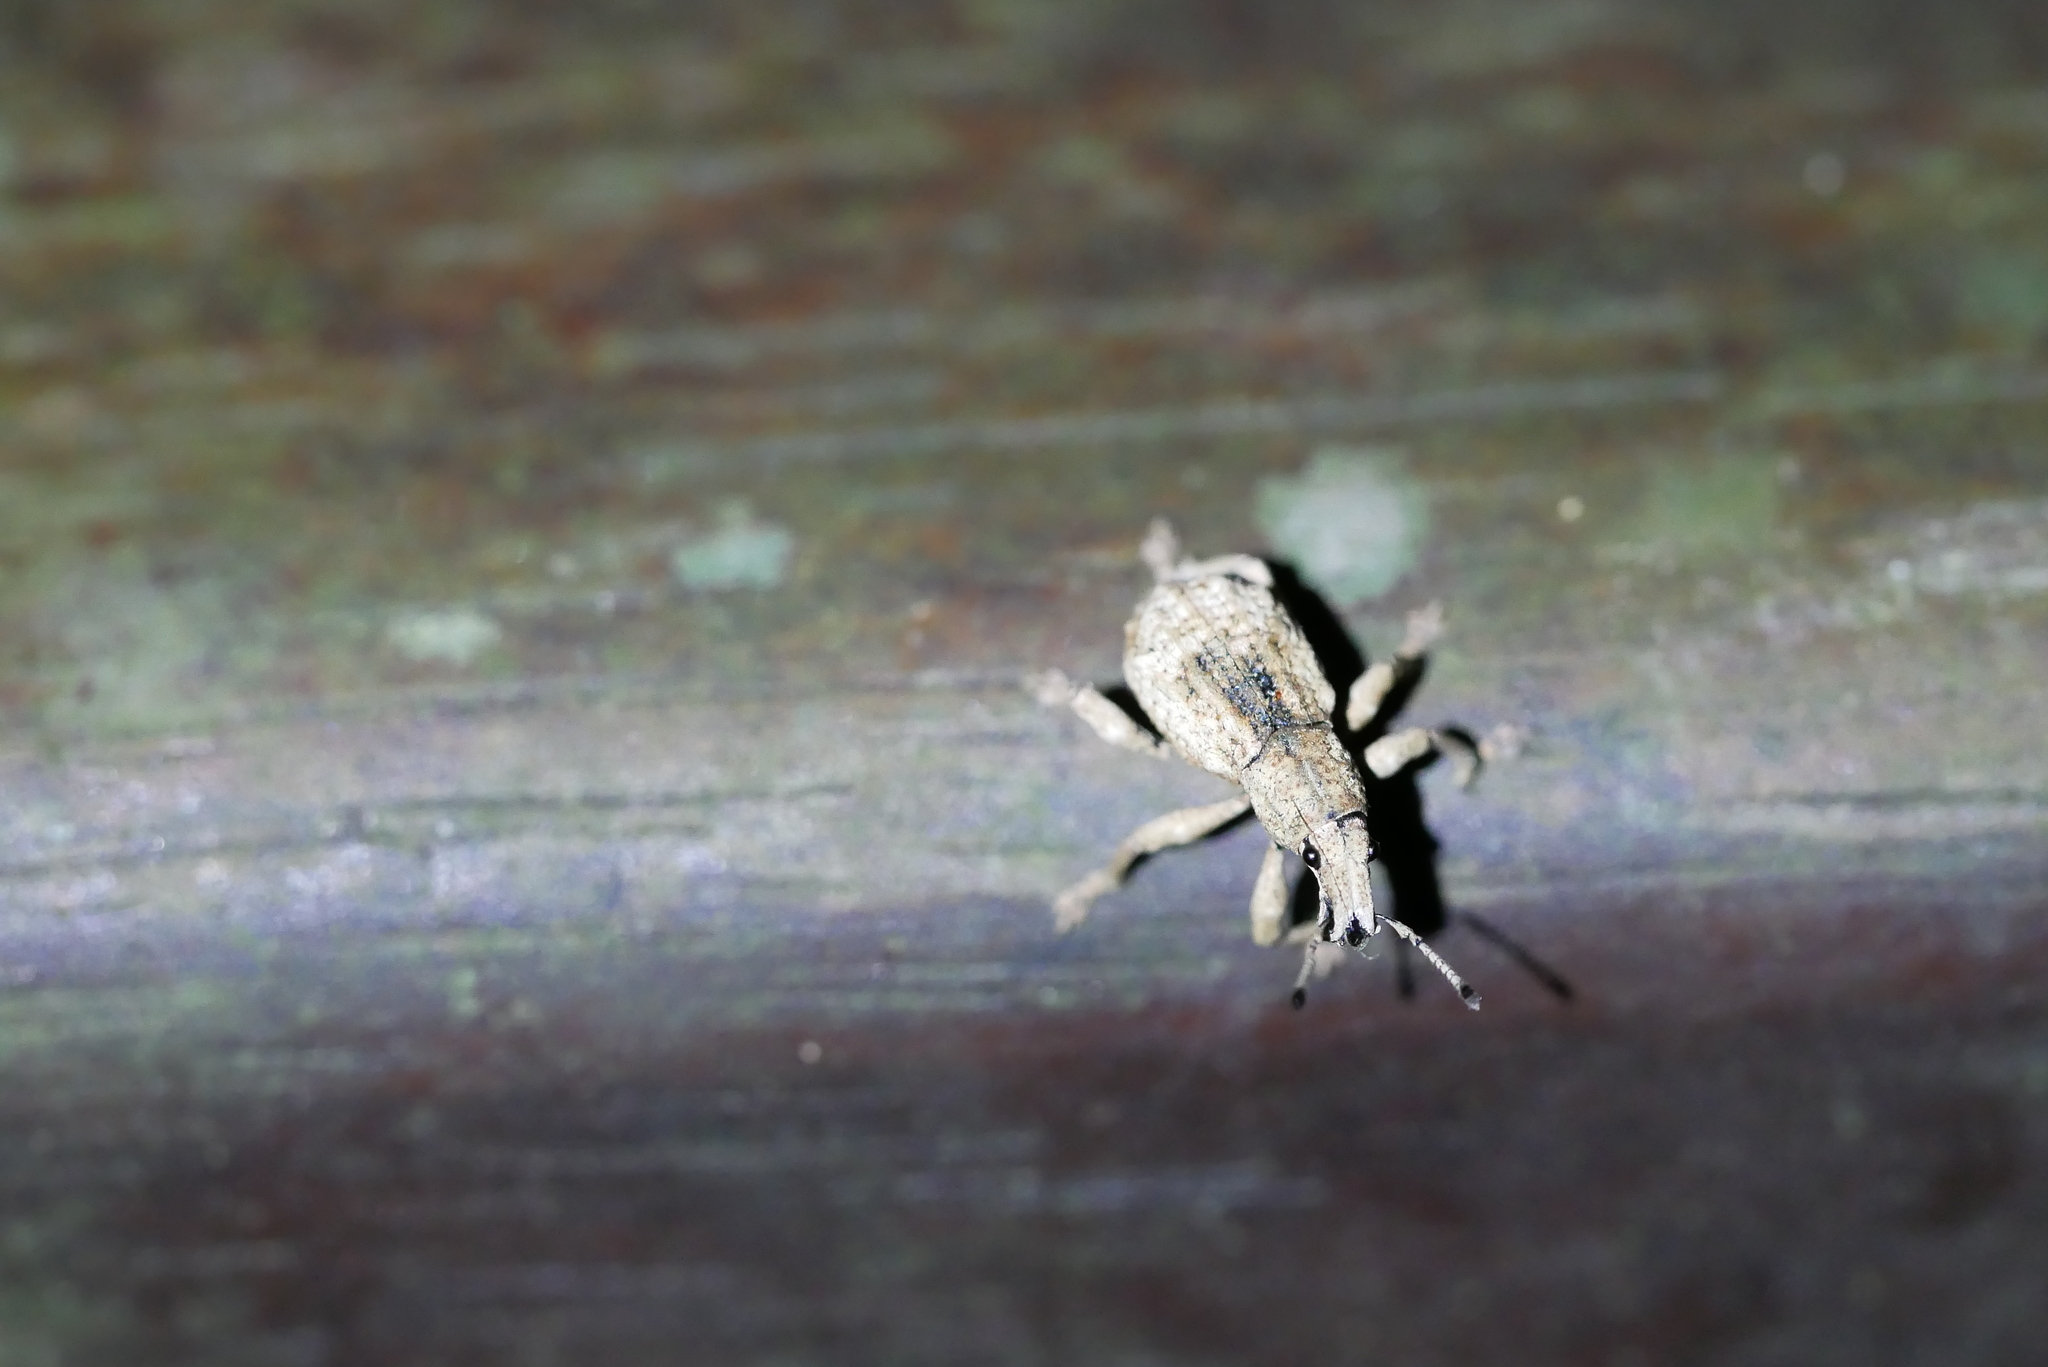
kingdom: Animalia
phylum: Arthropoda
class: Insecta
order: Coleoptera
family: Curculionidae
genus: Dermatoxenus
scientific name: Dermatoxenus caesicollis
